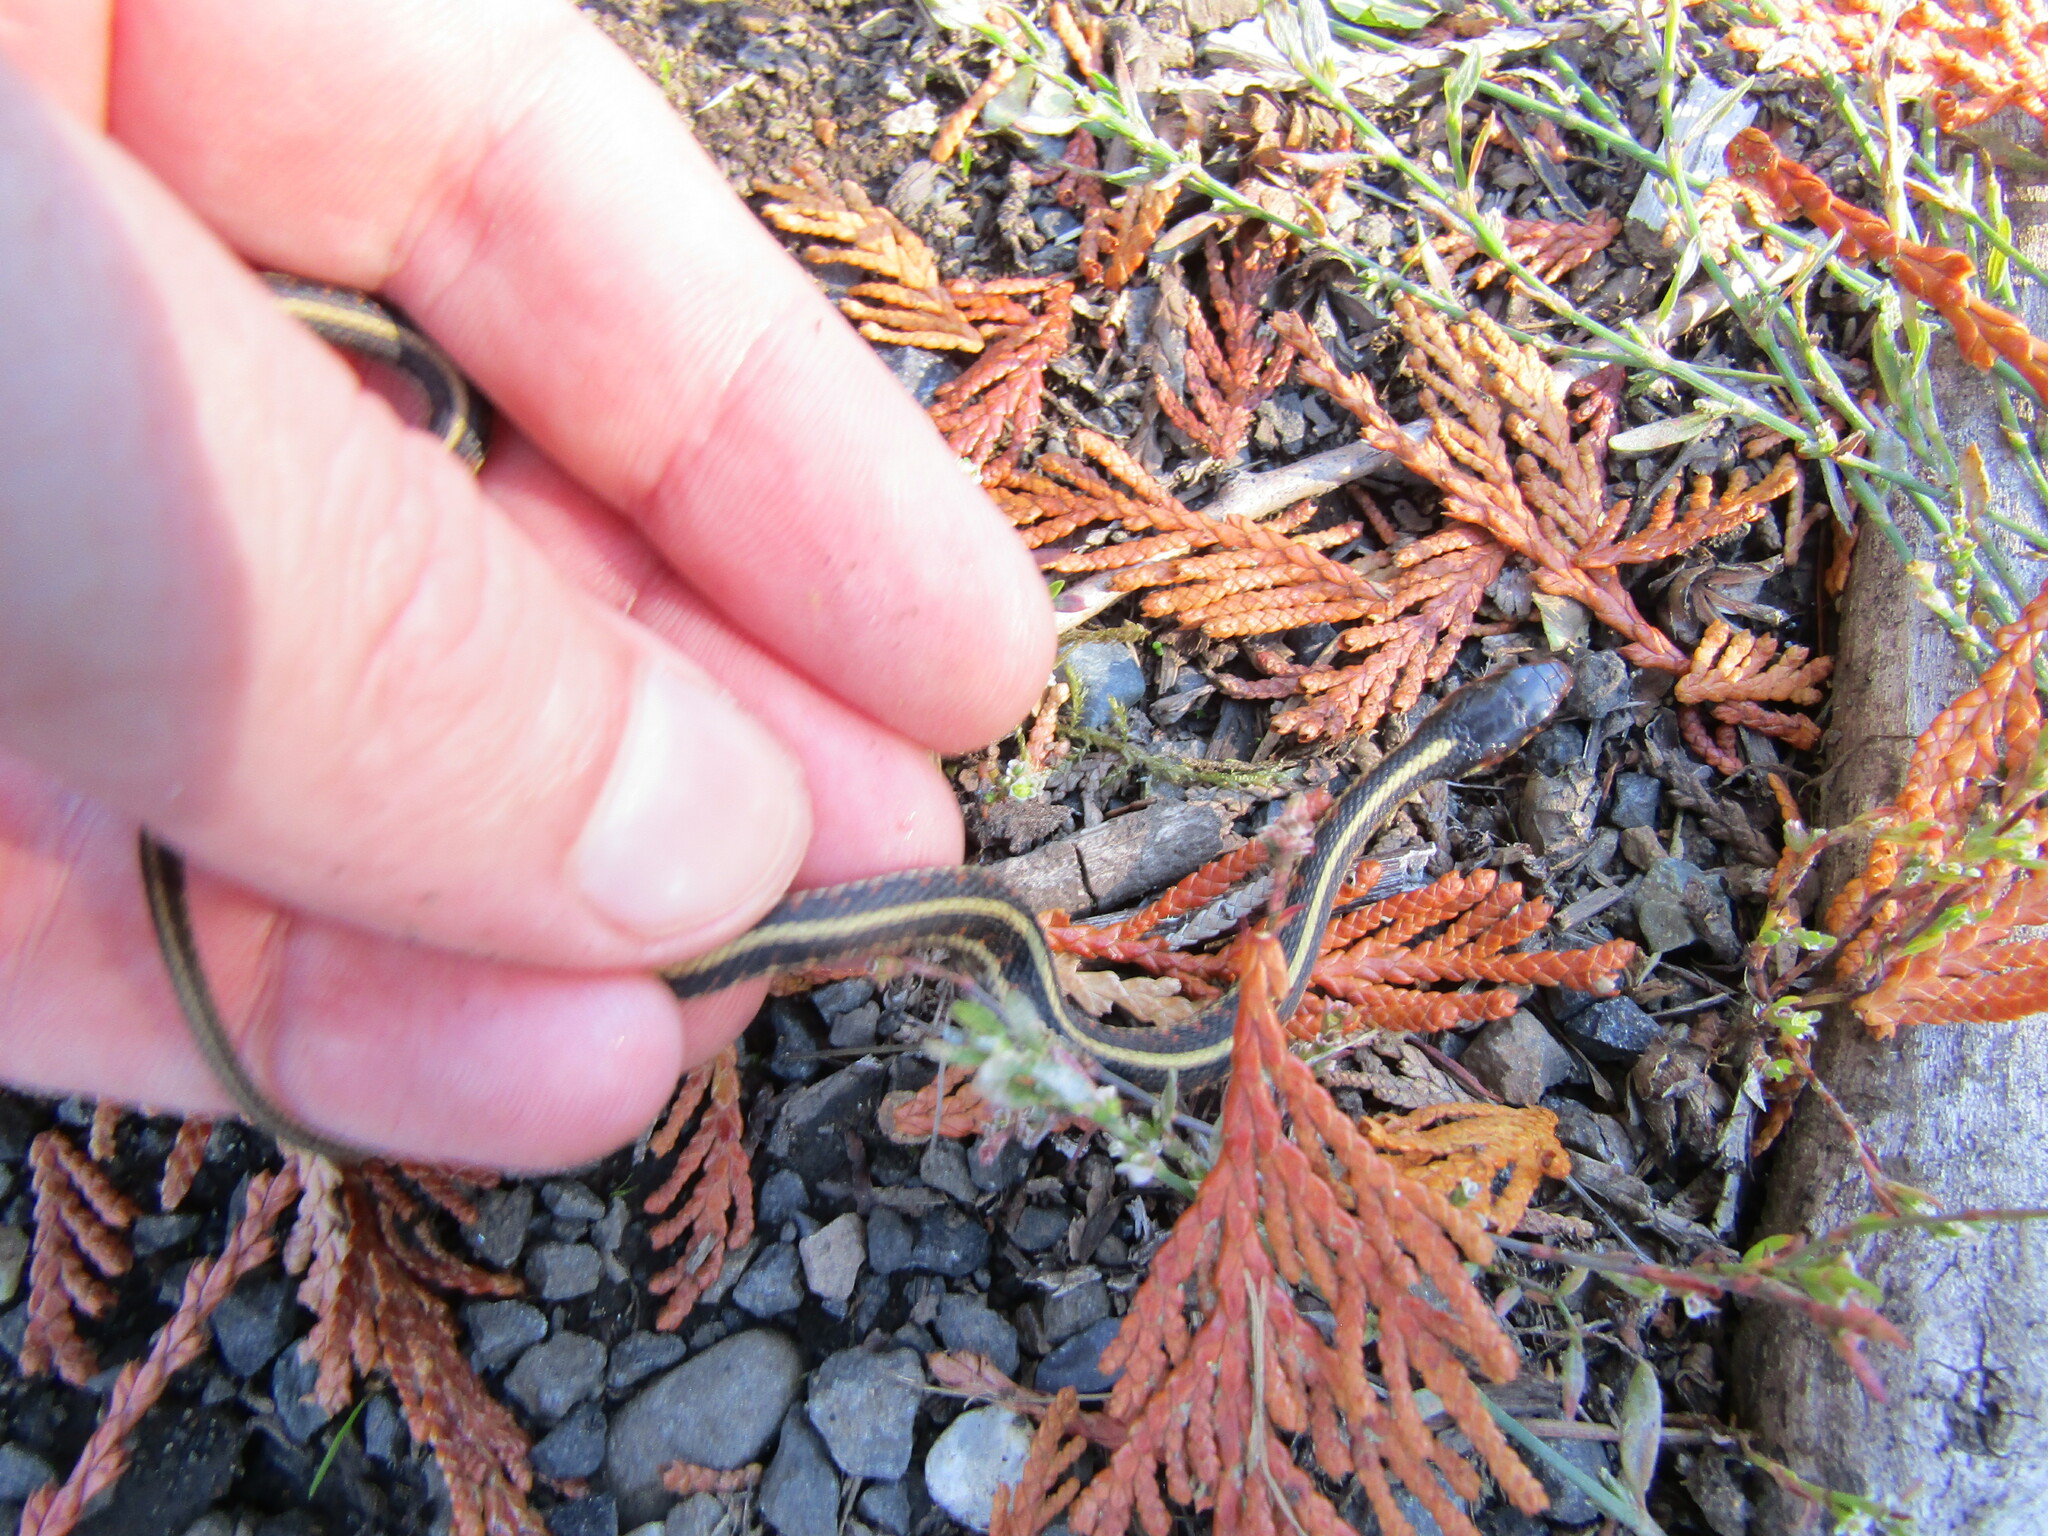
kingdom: Animalia
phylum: Chordata
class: Squamata
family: Colubridae
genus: Thamnophis
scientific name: Thamnophis sirtalis
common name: Common garter snake
